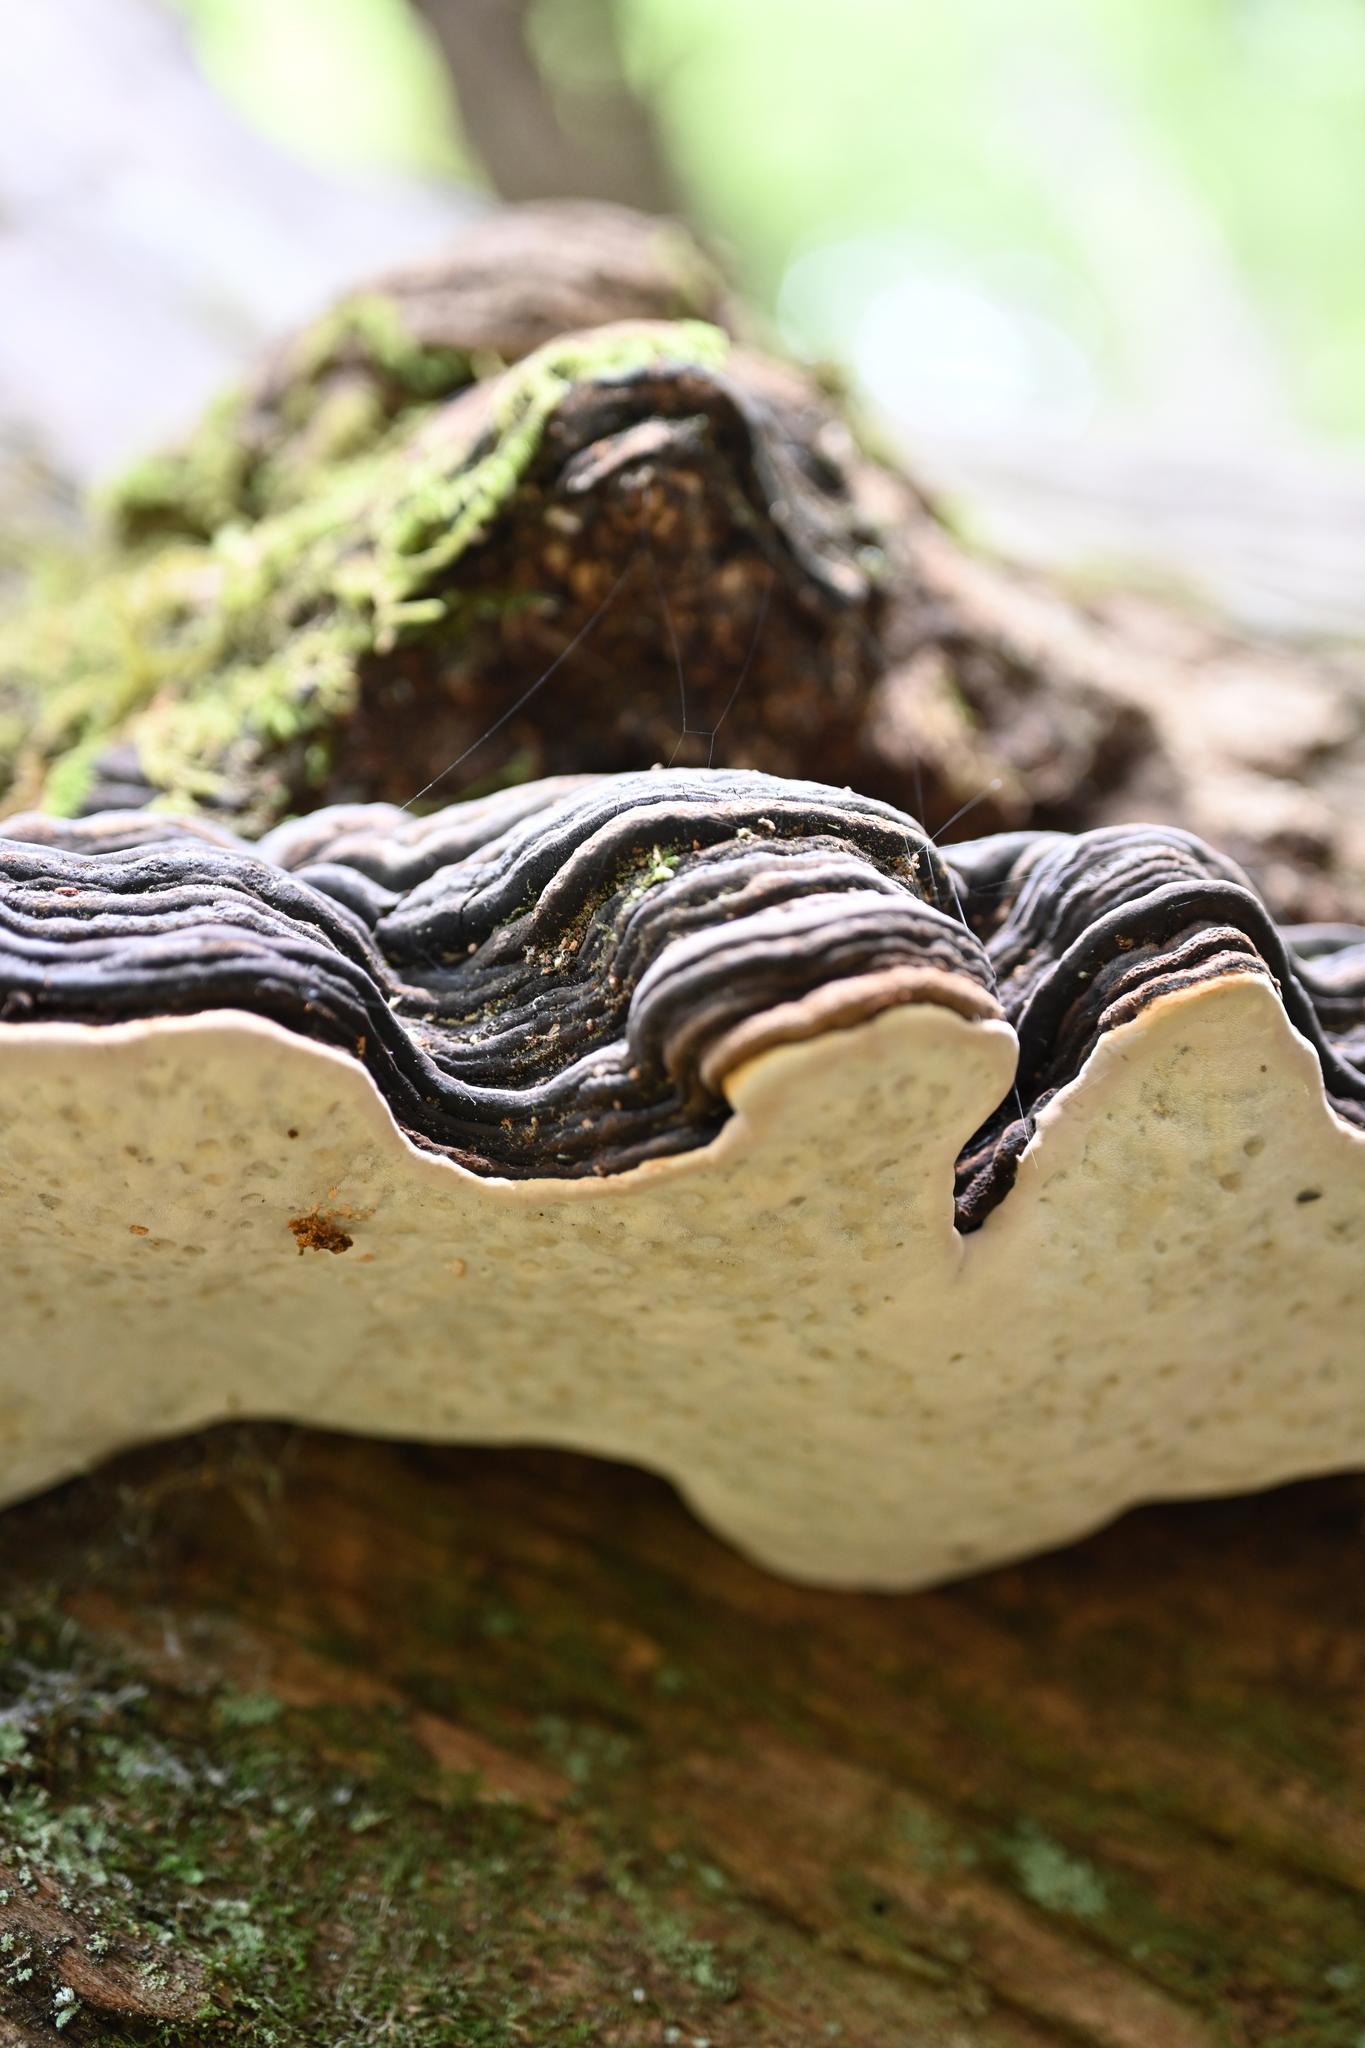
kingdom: Fungi
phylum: Basidiomycota
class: Agaricomycetes
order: Polyporales
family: Fomitopsidaceae
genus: Fomitopsis
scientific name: Fomitopsis ochracea
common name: American brown fomitopsis
